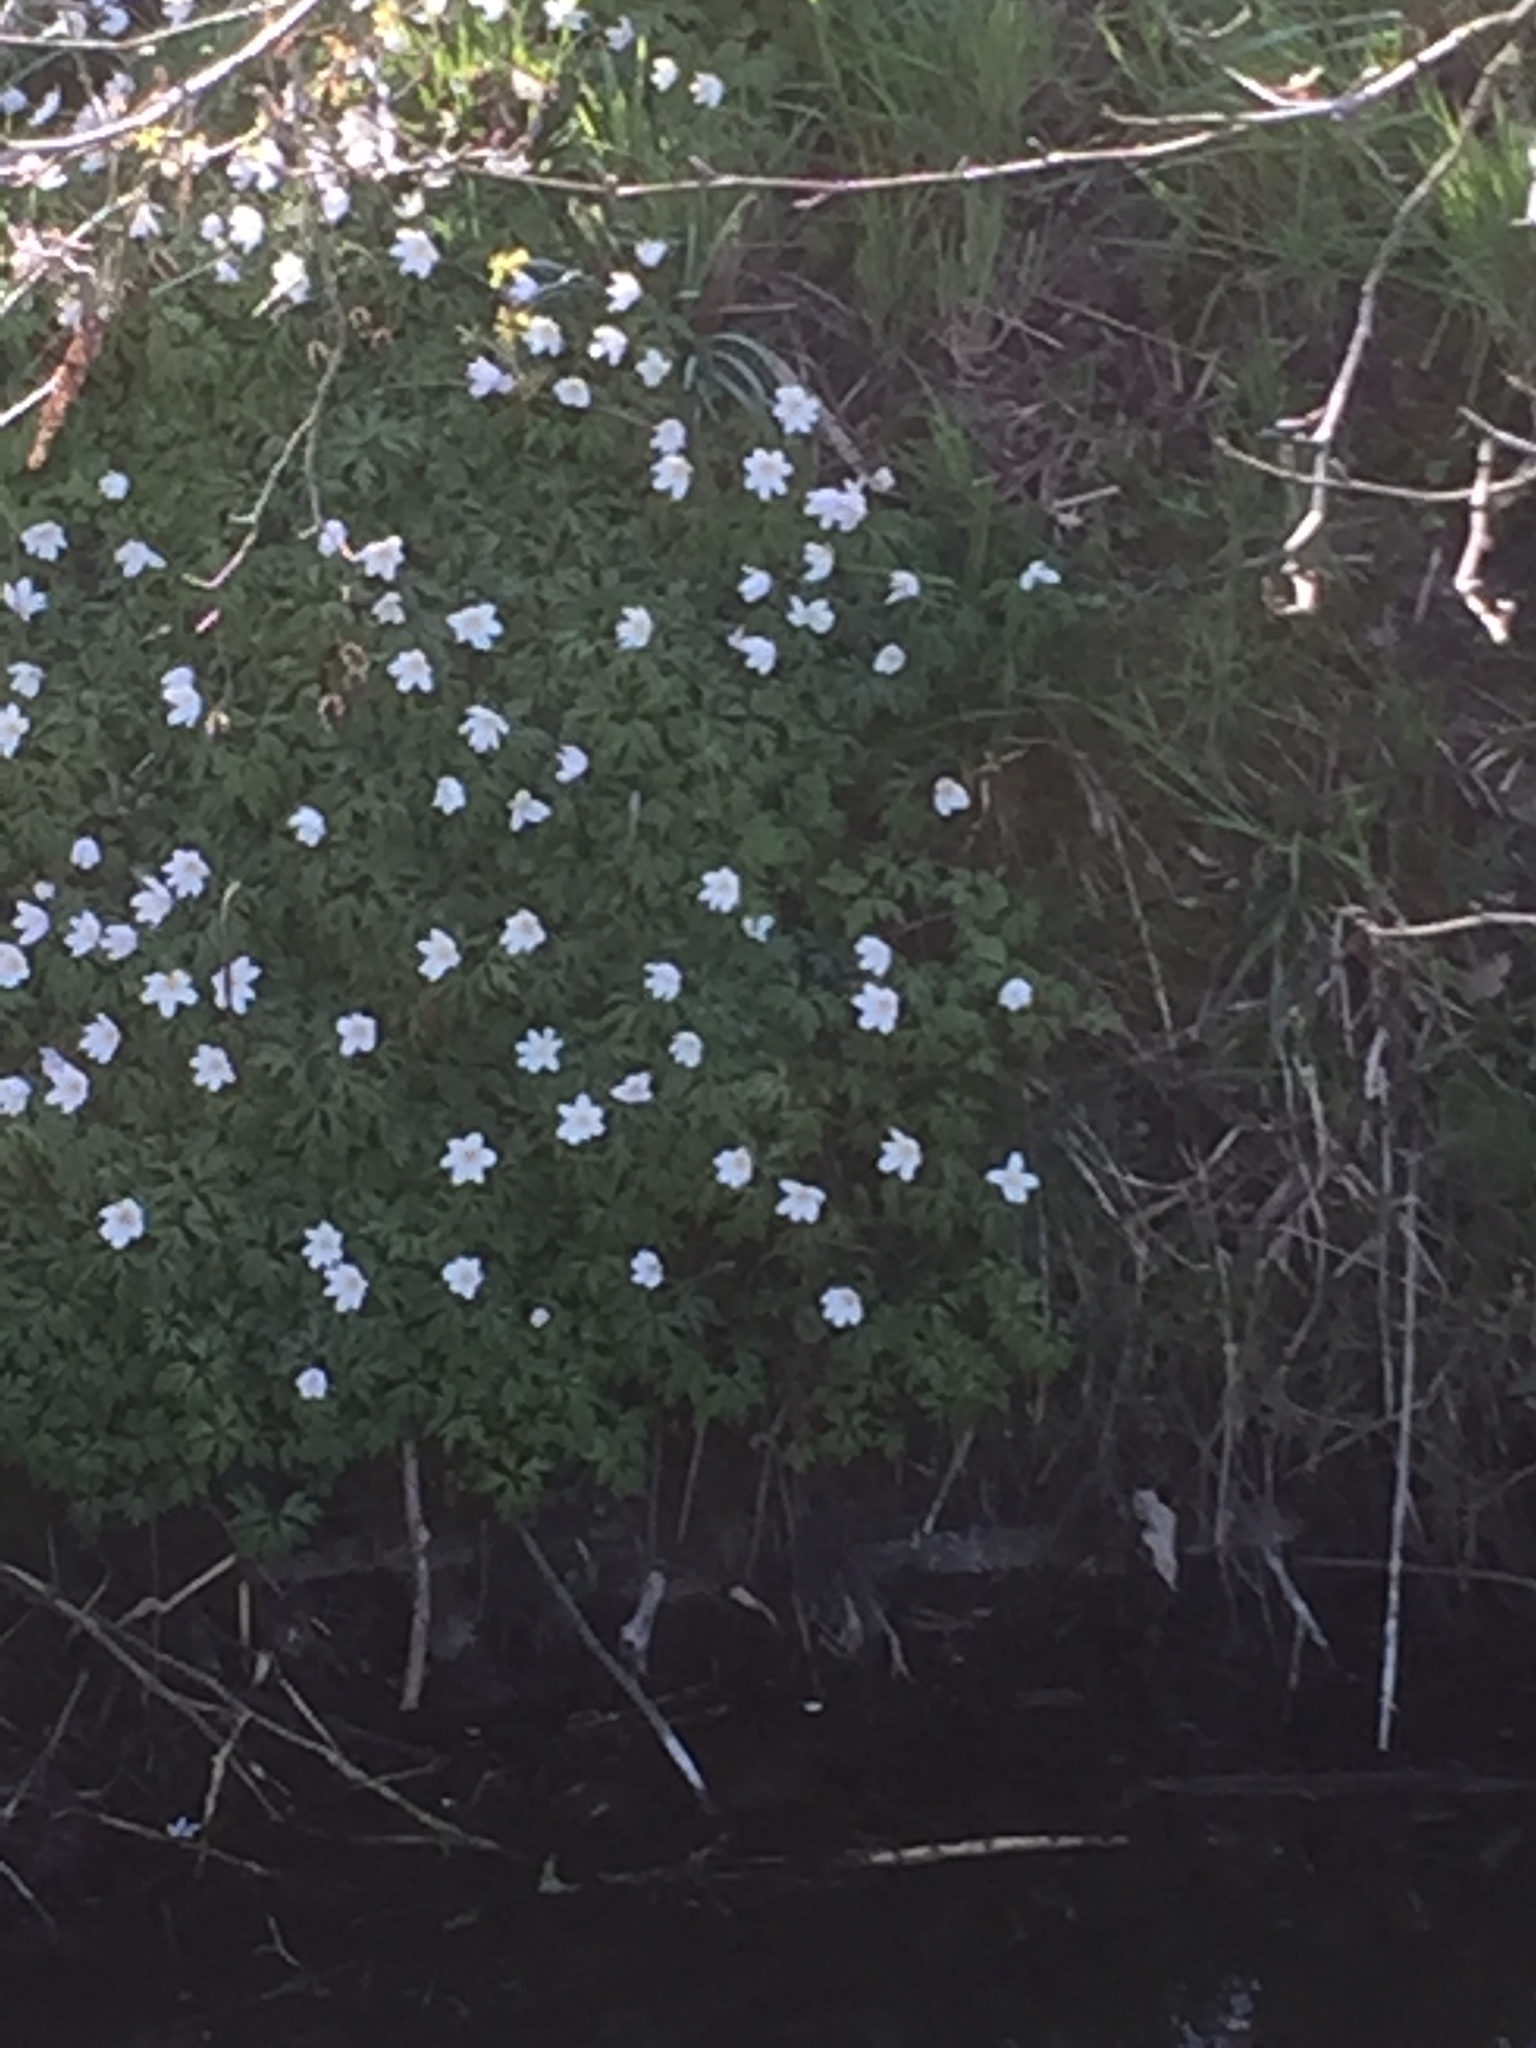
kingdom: Plantae
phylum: Tracheophyta
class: Magnoliopsida
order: Ranunculales
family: Ranunculaceae
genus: Anemone
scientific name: Anemone nemorosa
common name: Wood anemone
